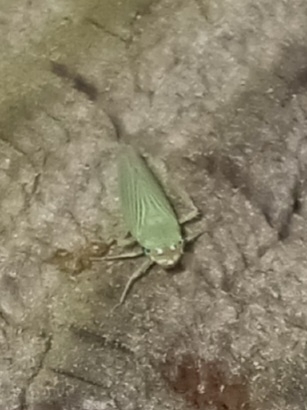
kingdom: Animalia
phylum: Arthropoda
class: Insecta
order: Hemiptera
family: Cicadellidae
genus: Xyphon
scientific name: Xyphon flaviceps
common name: Yellowheaded leafhopper
